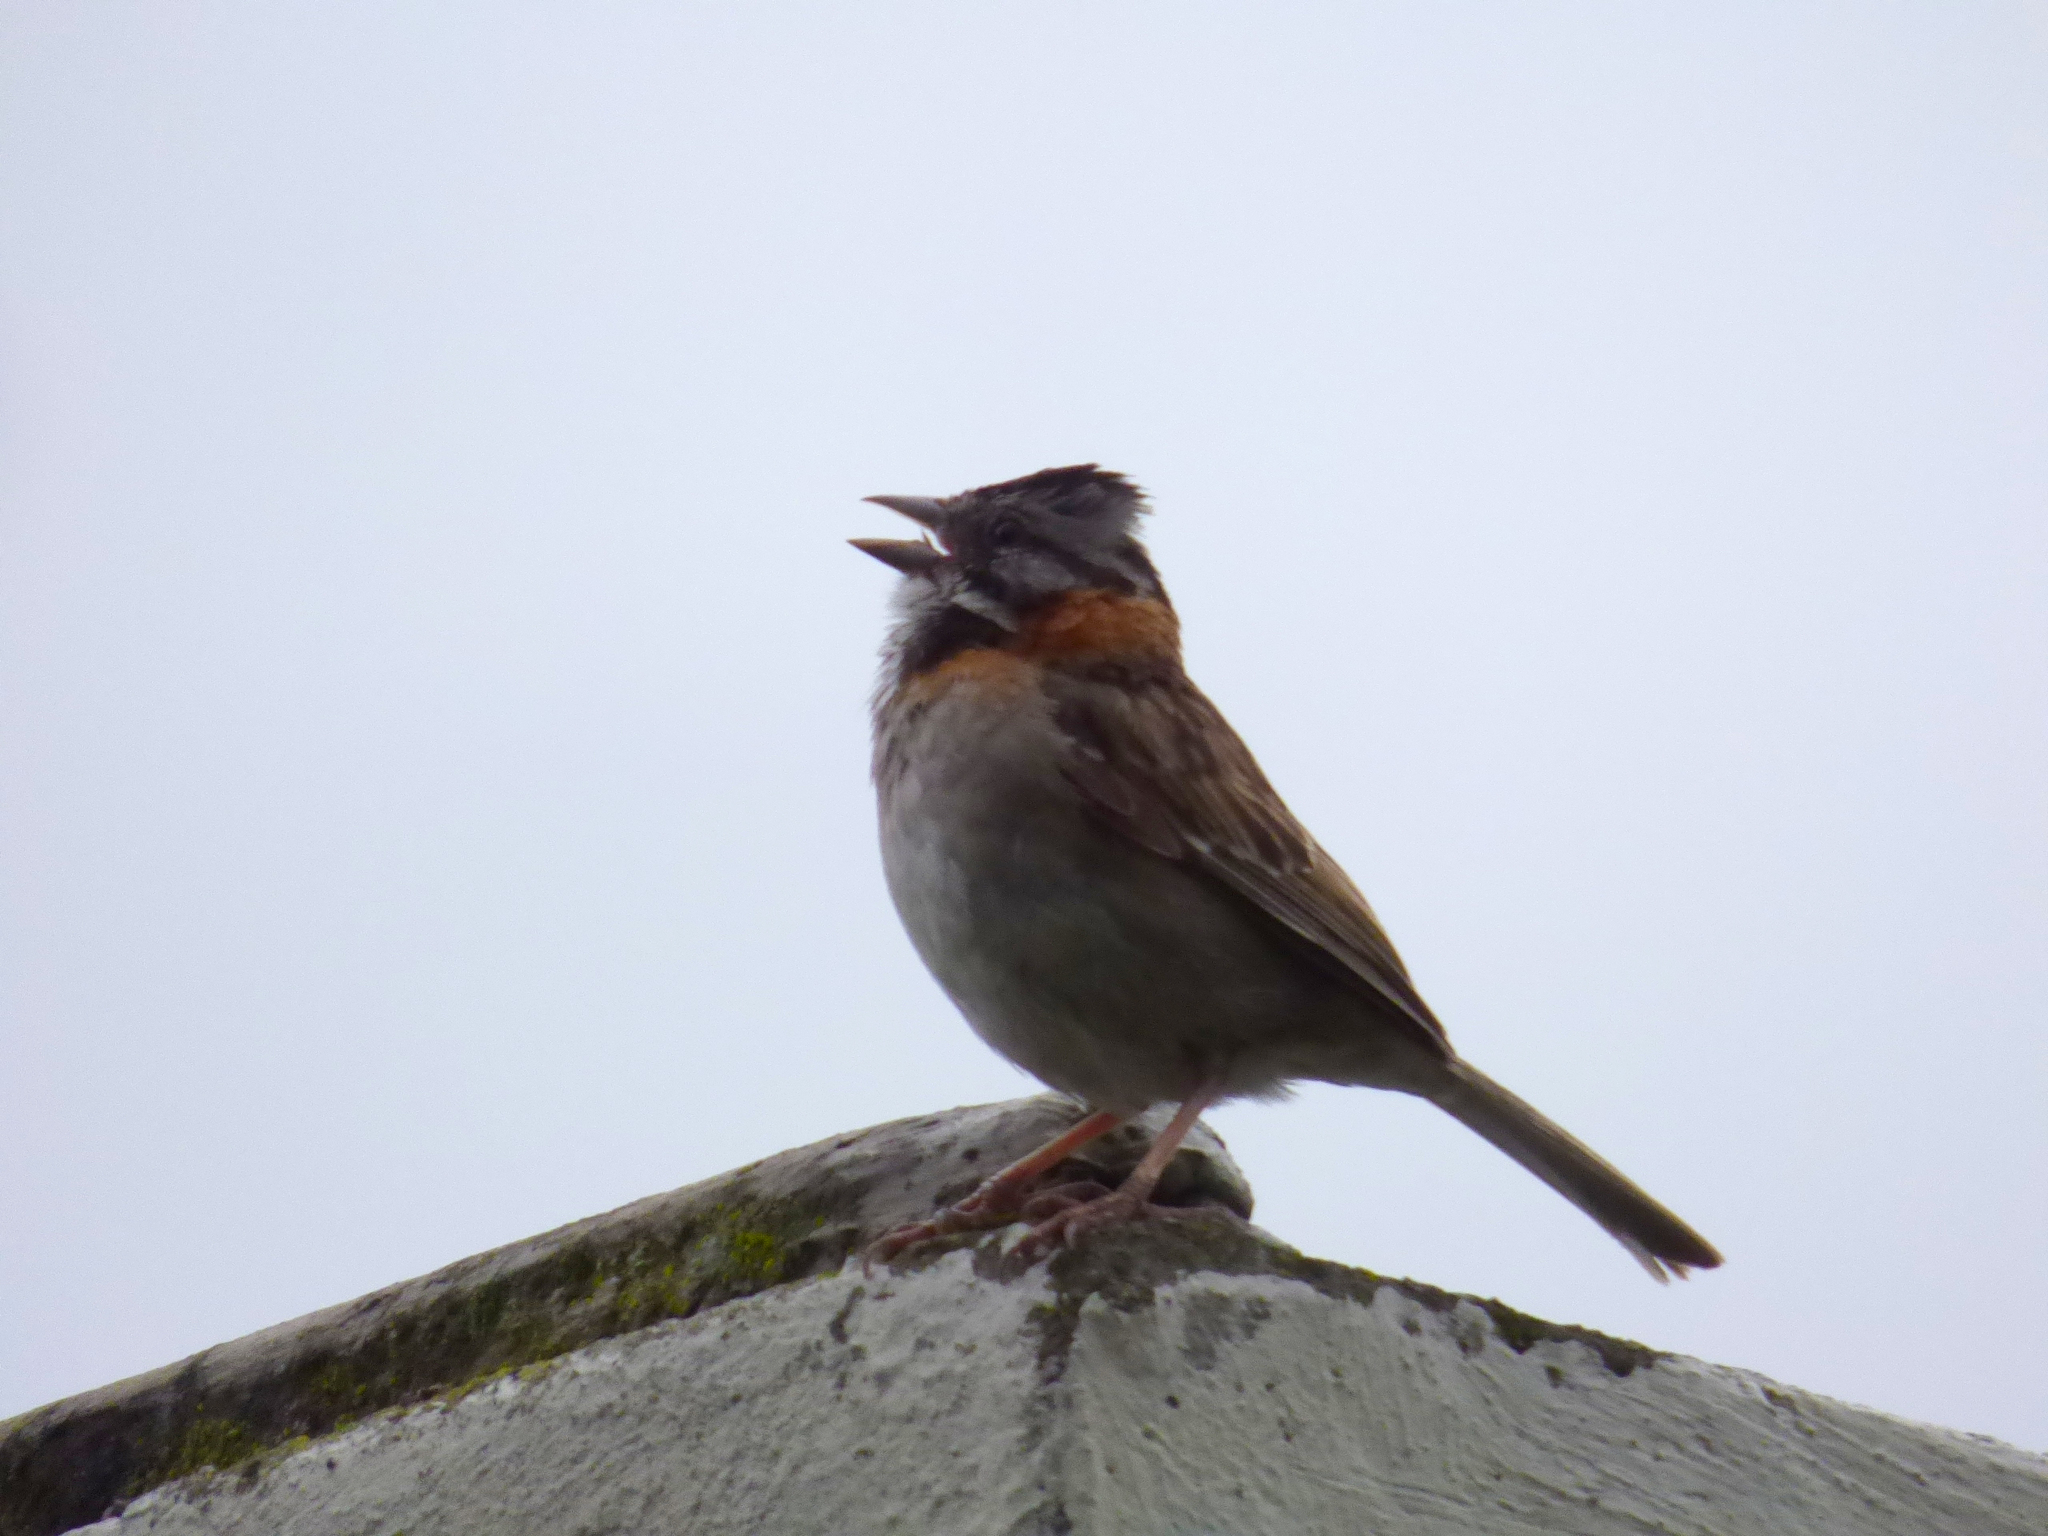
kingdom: Animalia
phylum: Chordata
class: Aves
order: Passeriformes
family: Passerellidae
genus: Zonotrichia
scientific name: Zonotrichia capensis
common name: Rufous-collared sparrow
